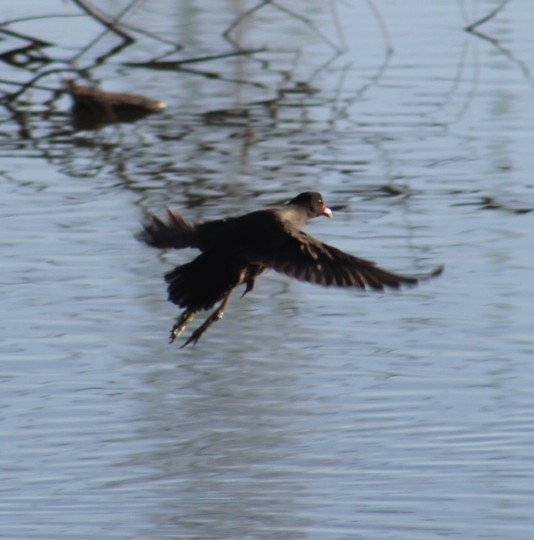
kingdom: Animalia
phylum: Chordata
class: Aves
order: Gruiformes
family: Rallidae
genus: Gallinula
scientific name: Gallinula chloropus
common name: Common moorhen
